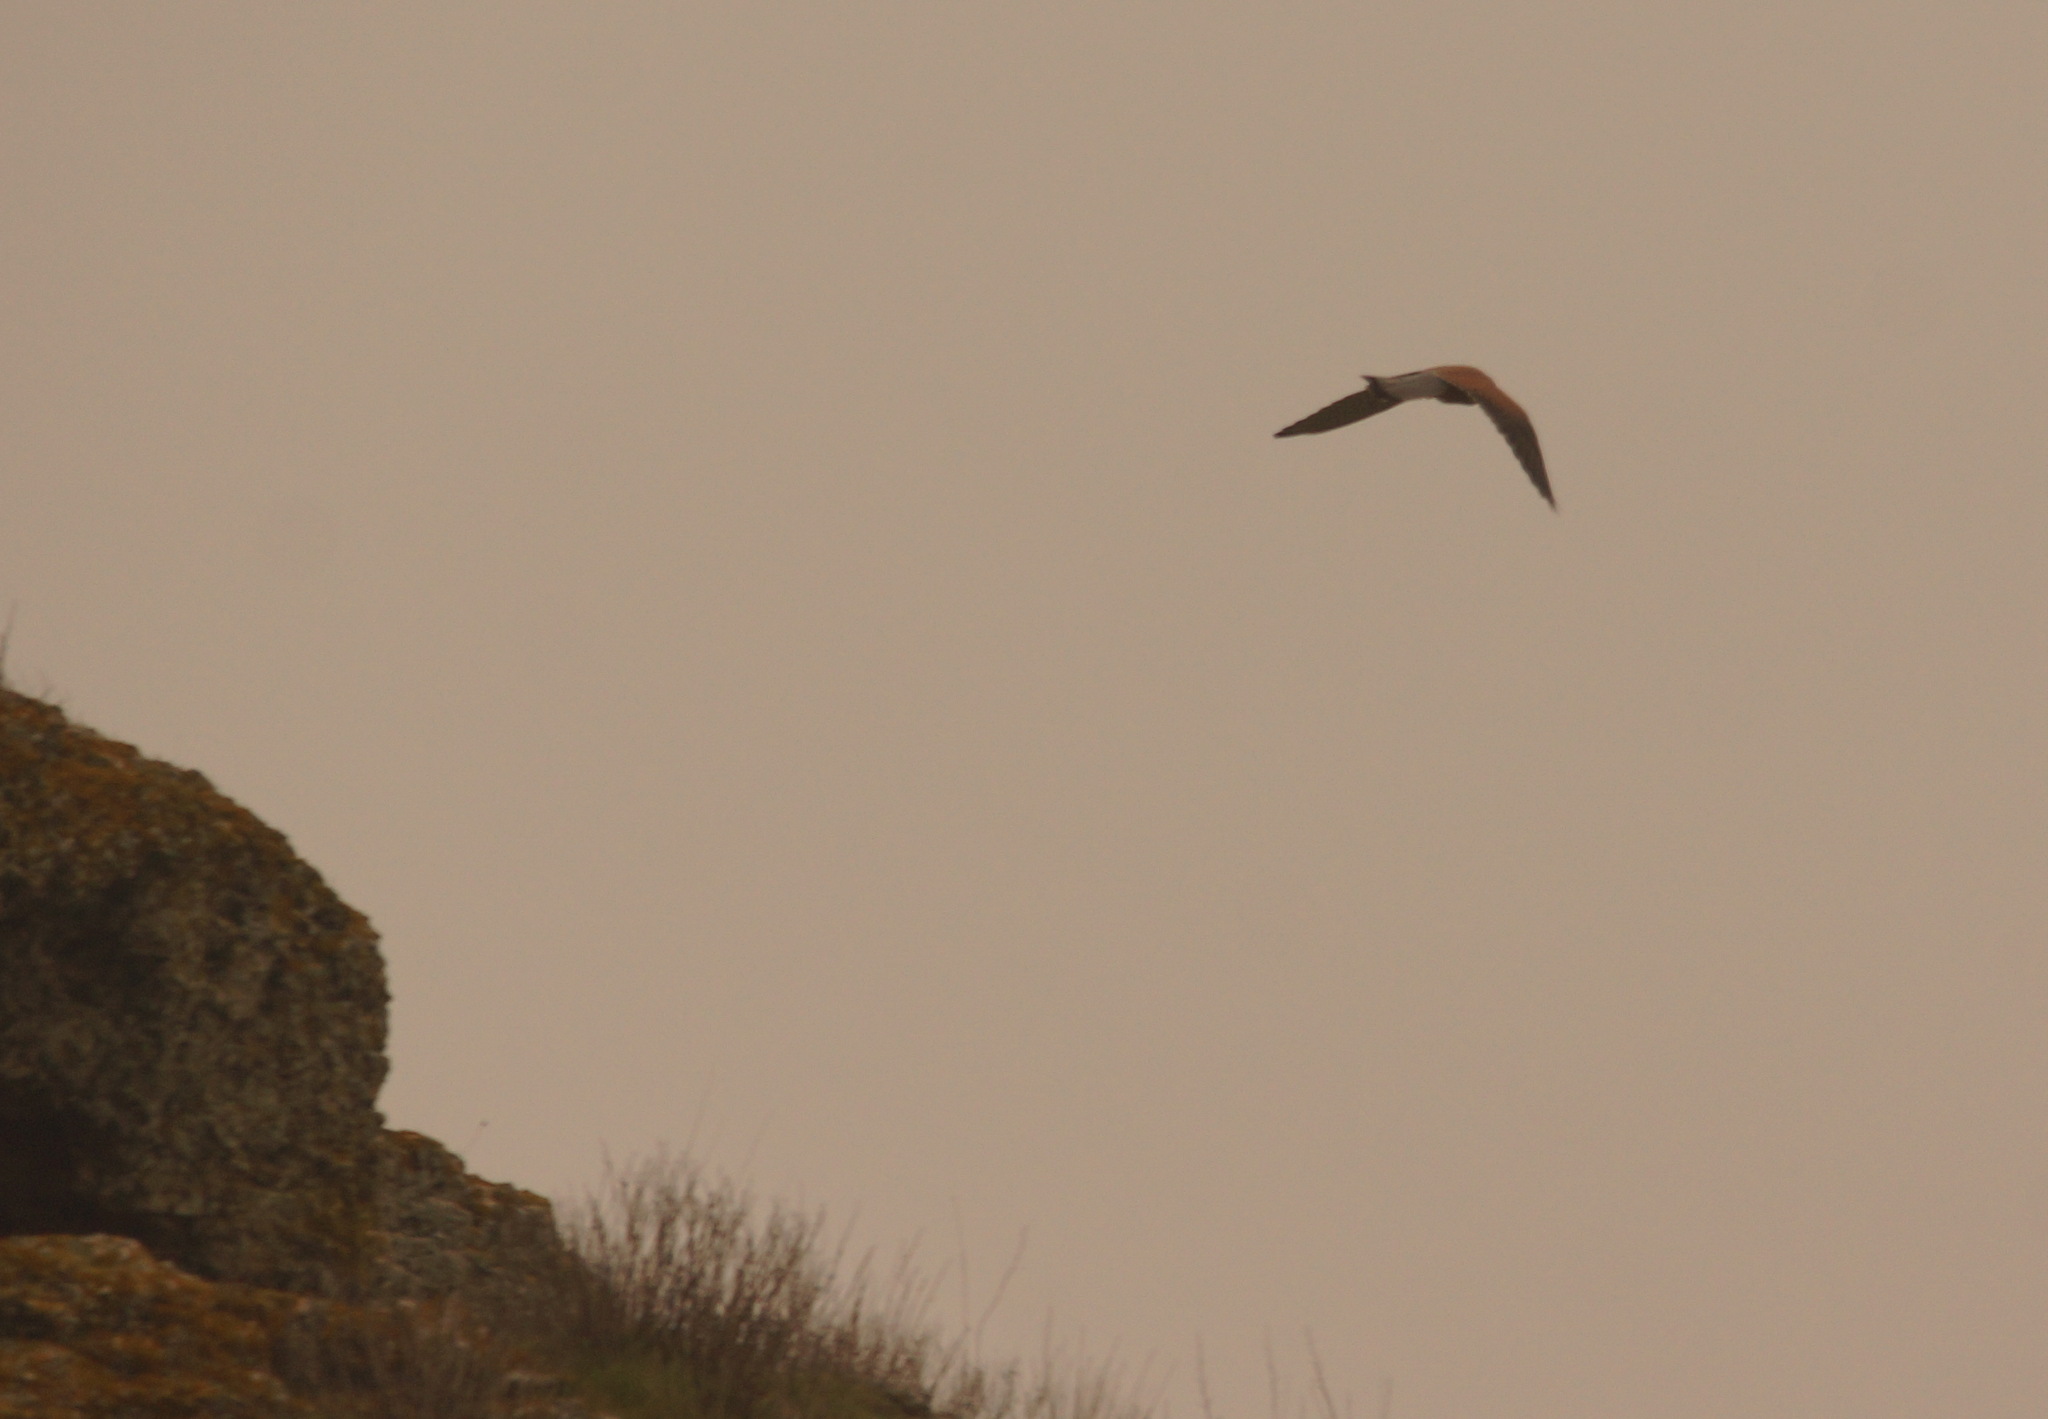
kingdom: Animalia
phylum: Chordata
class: Aves
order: Falconiformes
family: Falconidae
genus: Falco
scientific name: Falco tinnunculus
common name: Common kestrel
